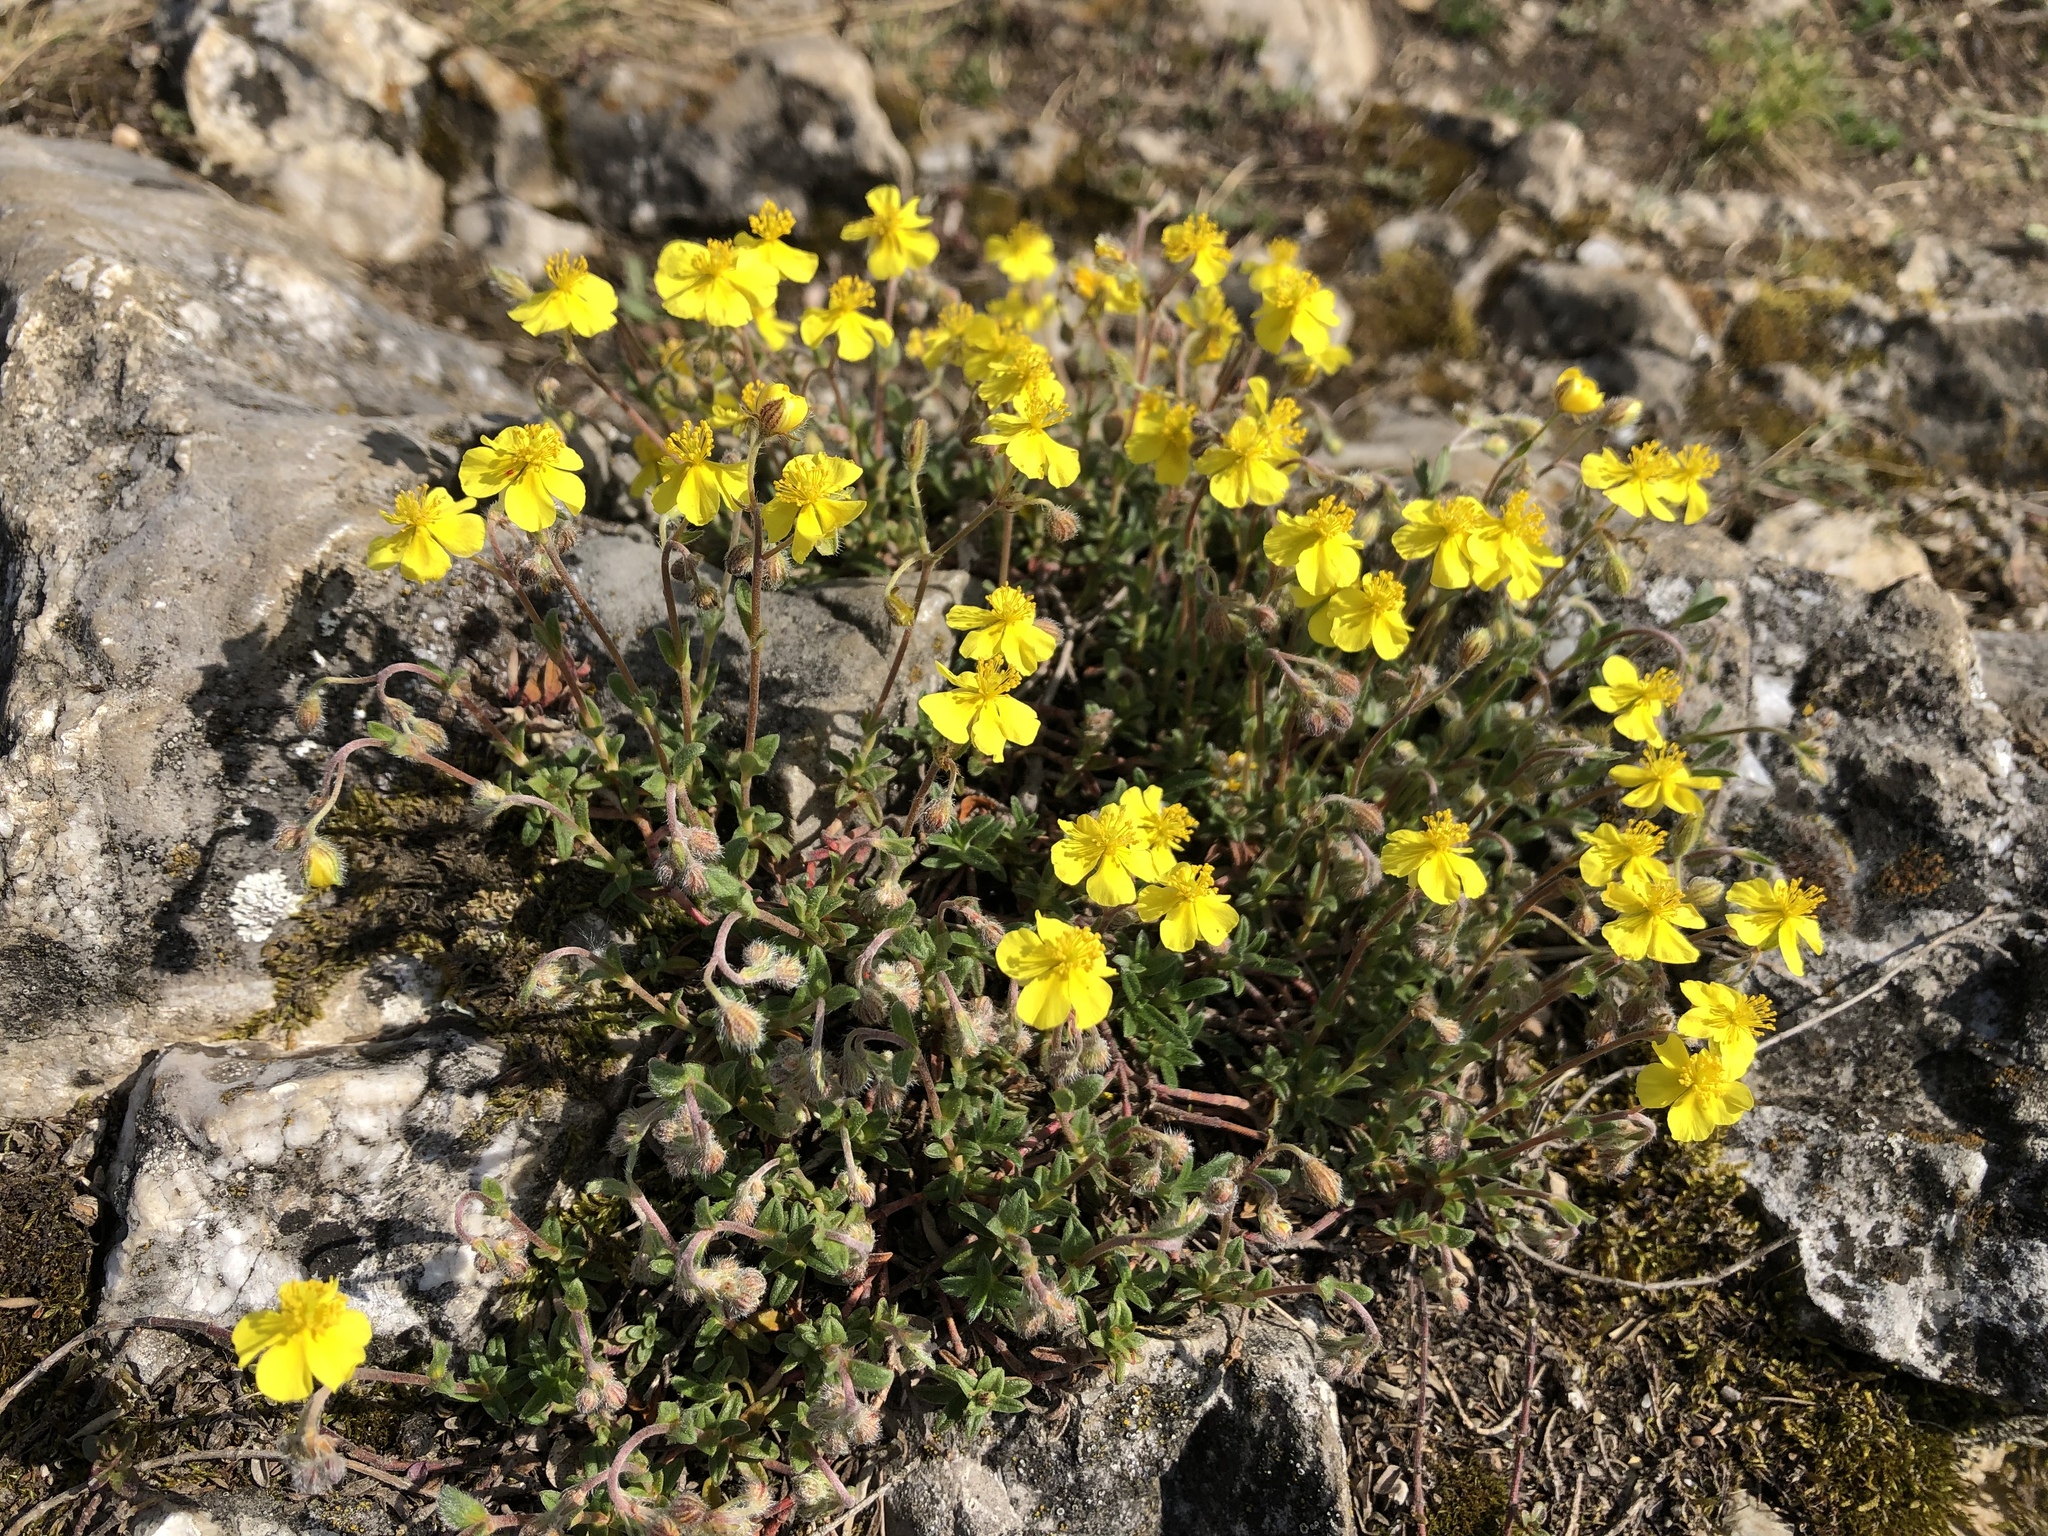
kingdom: Plantae
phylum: Tracheophyta
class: Magnoliopsida
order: Malvales
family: Cistaceae
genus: Helianthemum
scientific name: Helianthemum canum
